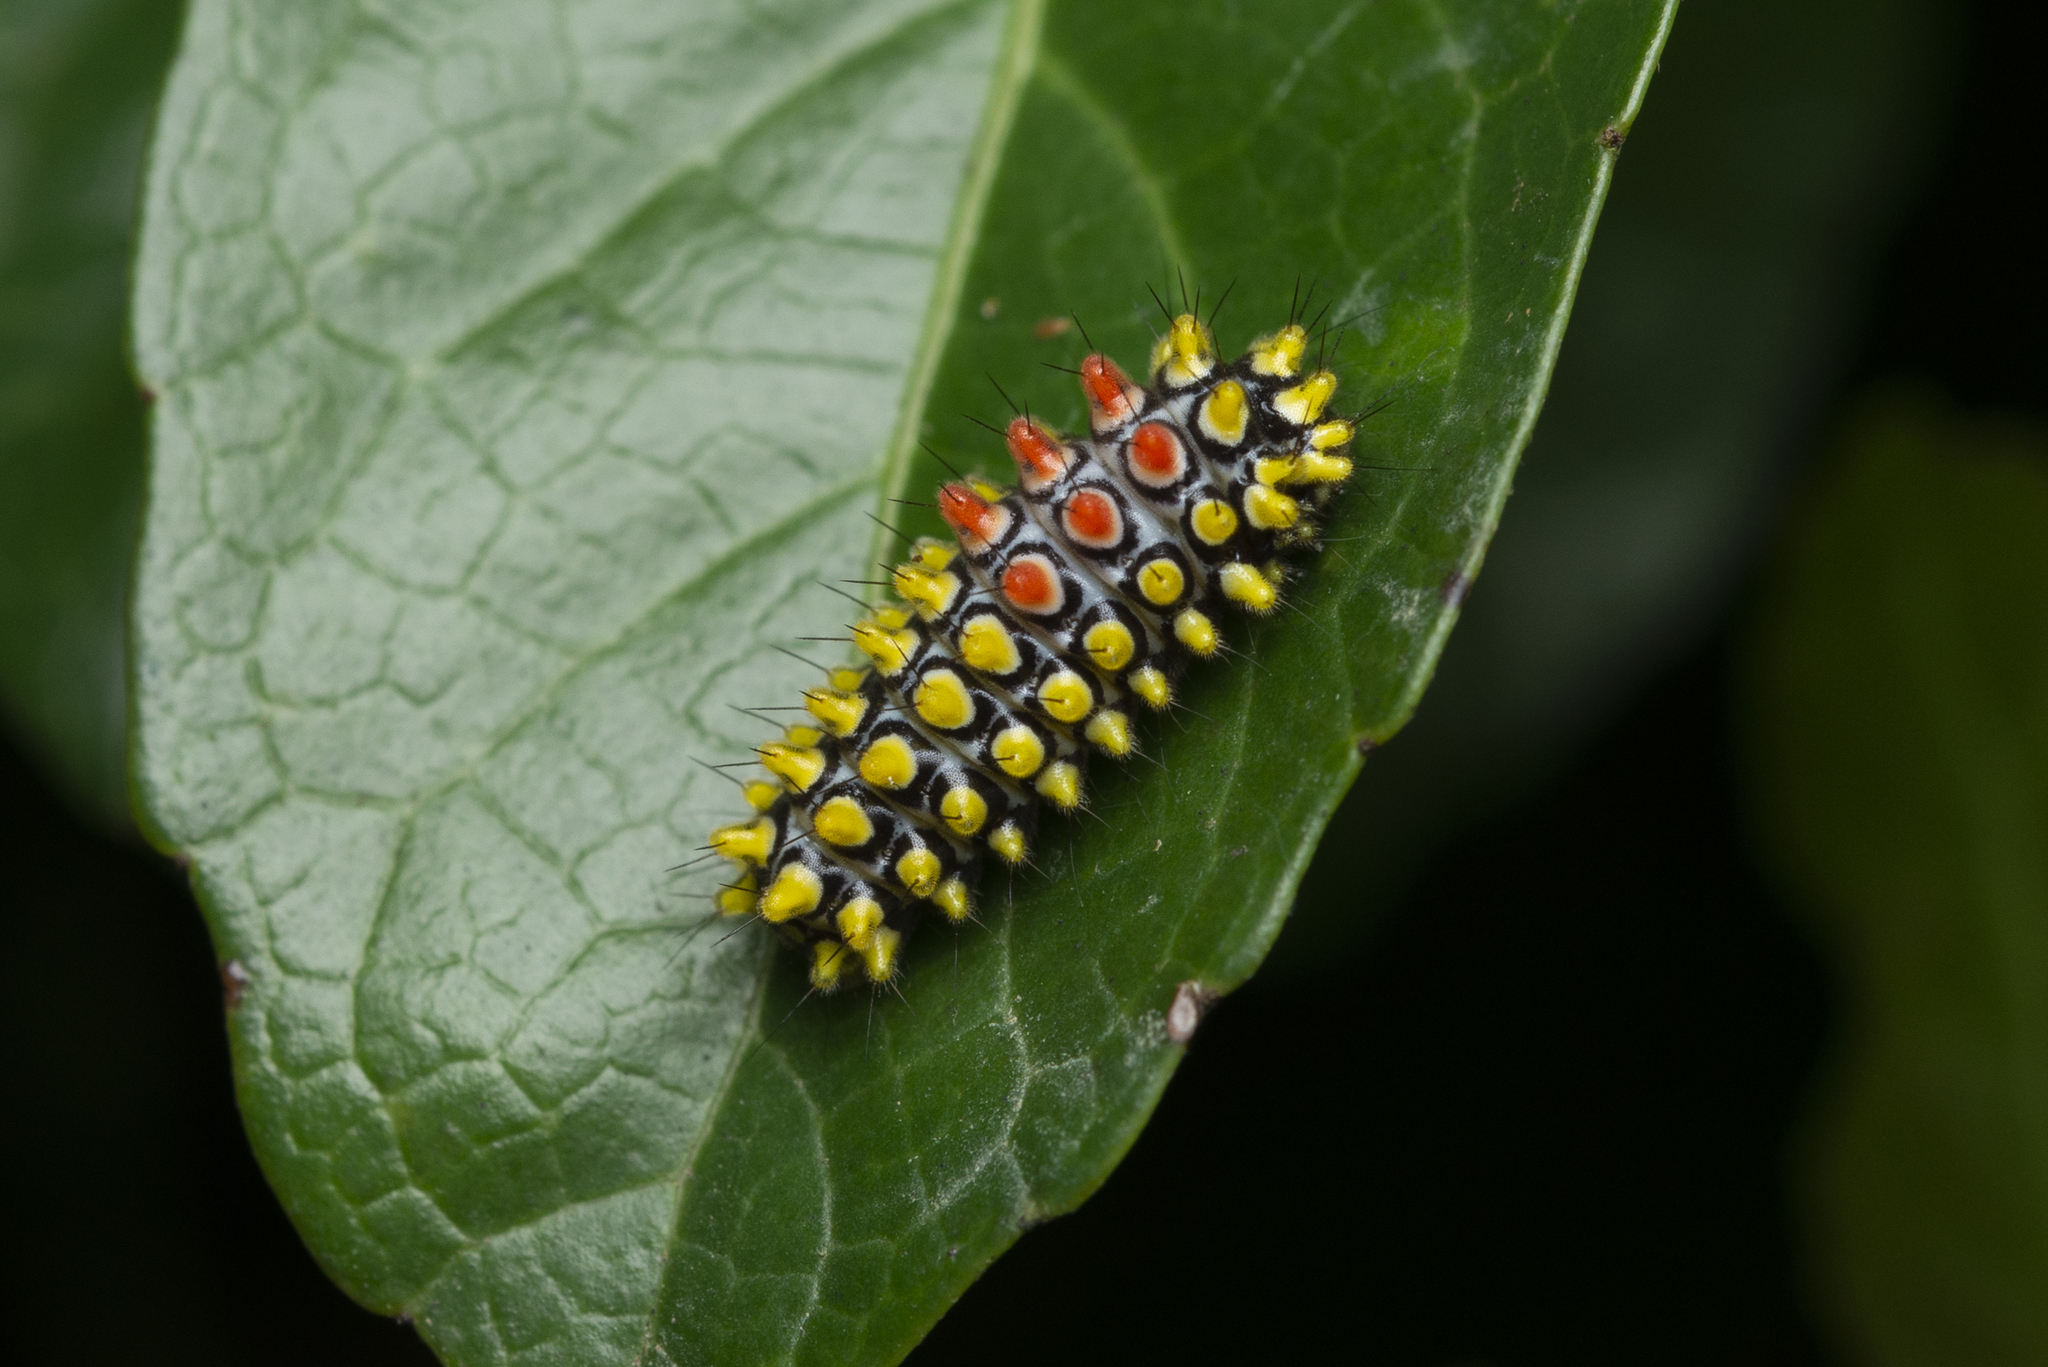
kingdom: Animalia
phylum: Arthropoda
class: Insecta
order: Lepidoptera
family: Zygaenidae
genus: Cyclosia
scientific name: Cyclosia papilionaris
